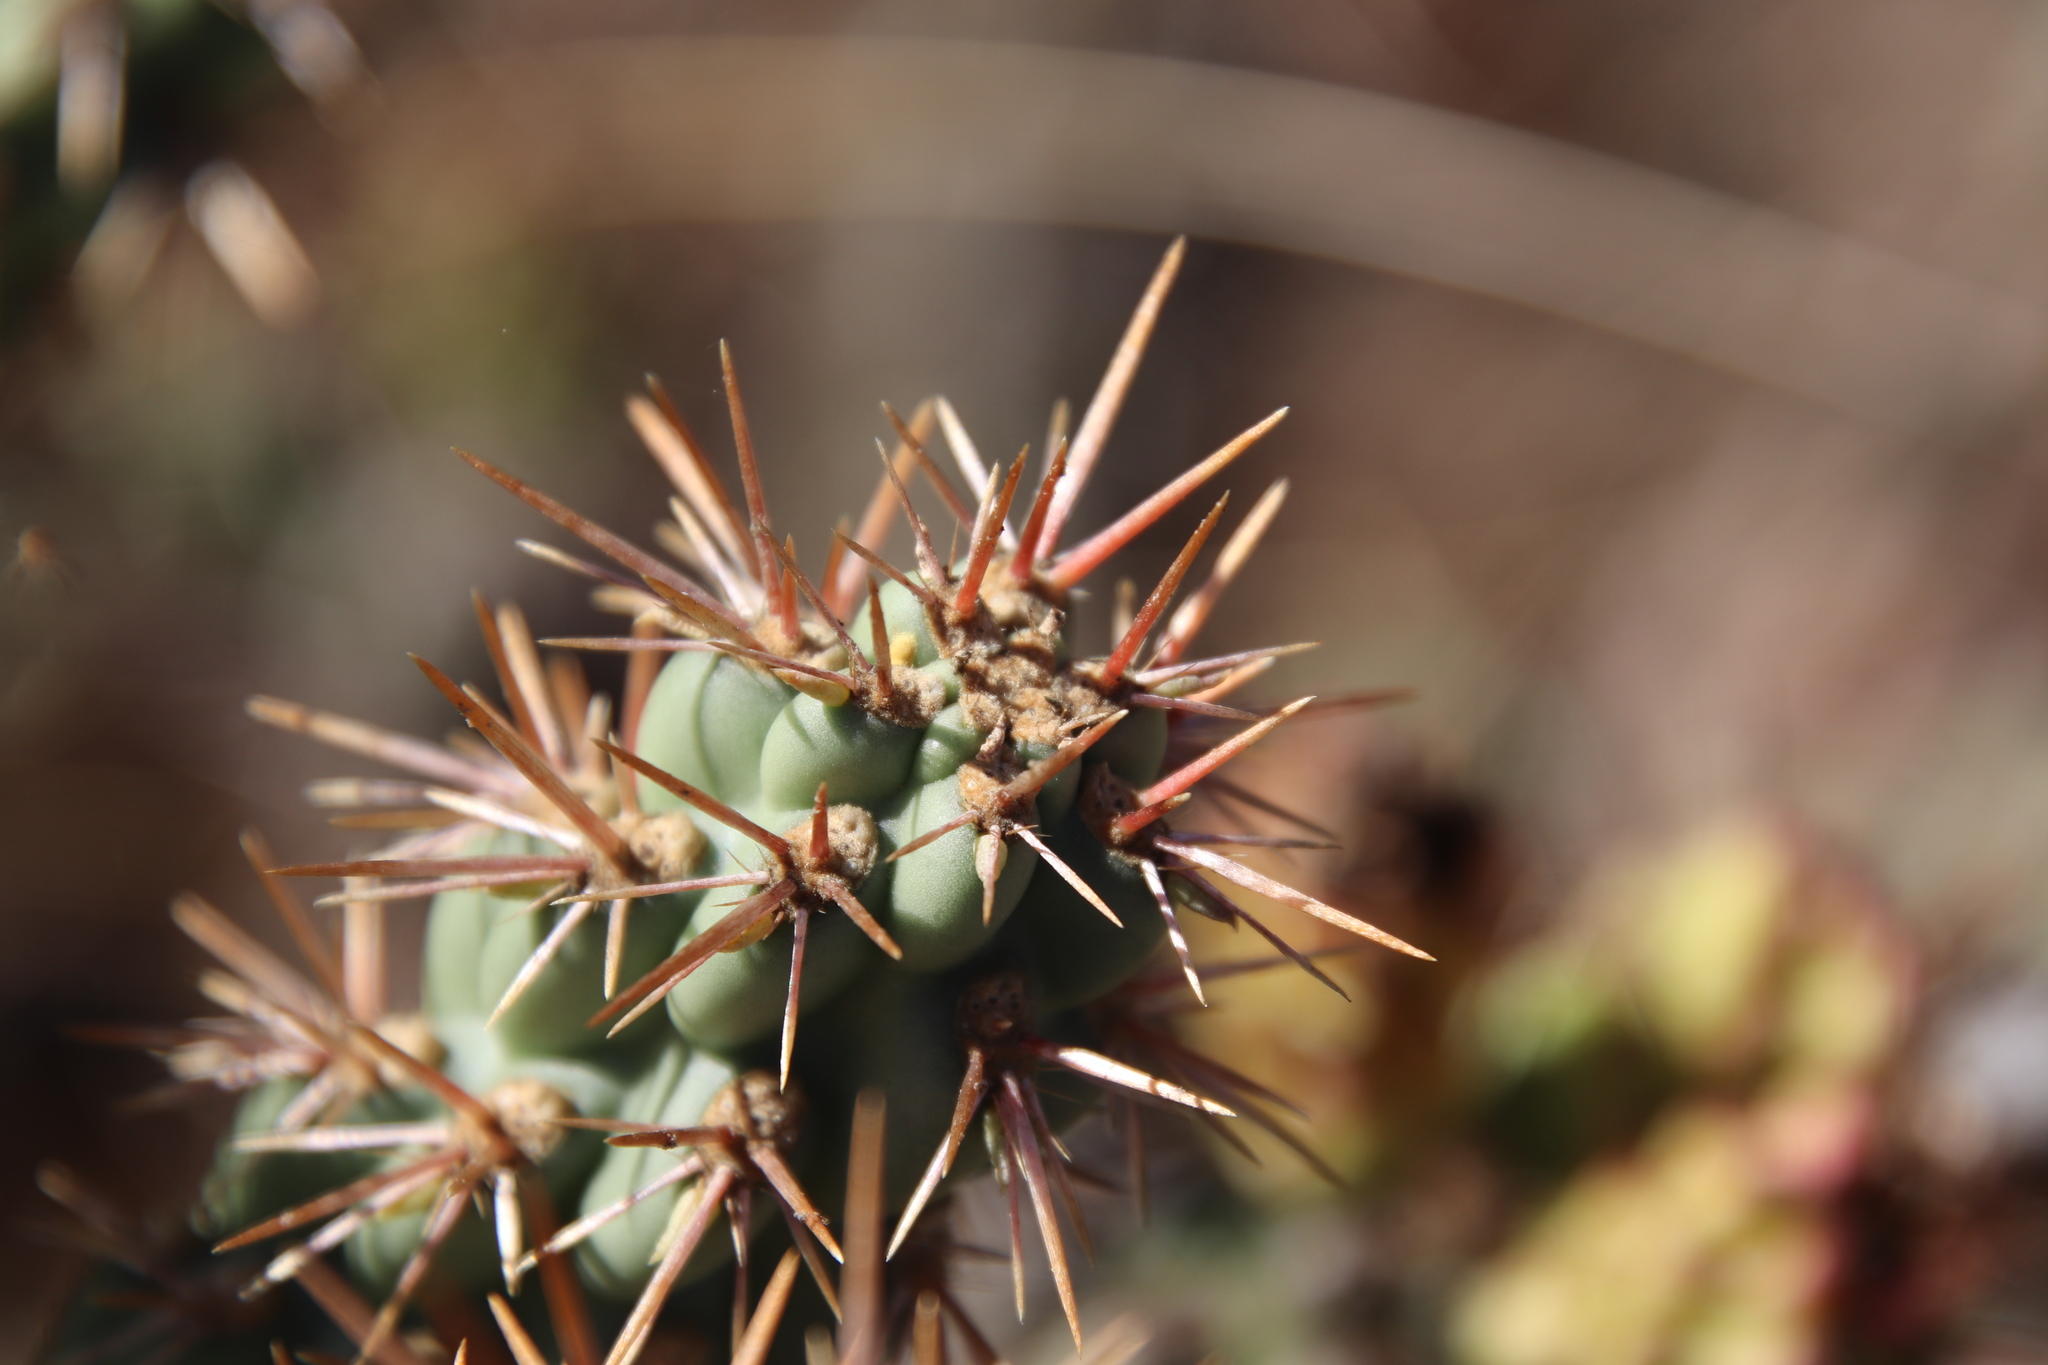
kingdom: Plantae
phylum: Tracheophyta
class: Magnoliopsida
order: Caryophyllales
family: Cactaceae
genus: Cylindropuntia
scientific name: Cylindropuntia prolifera
